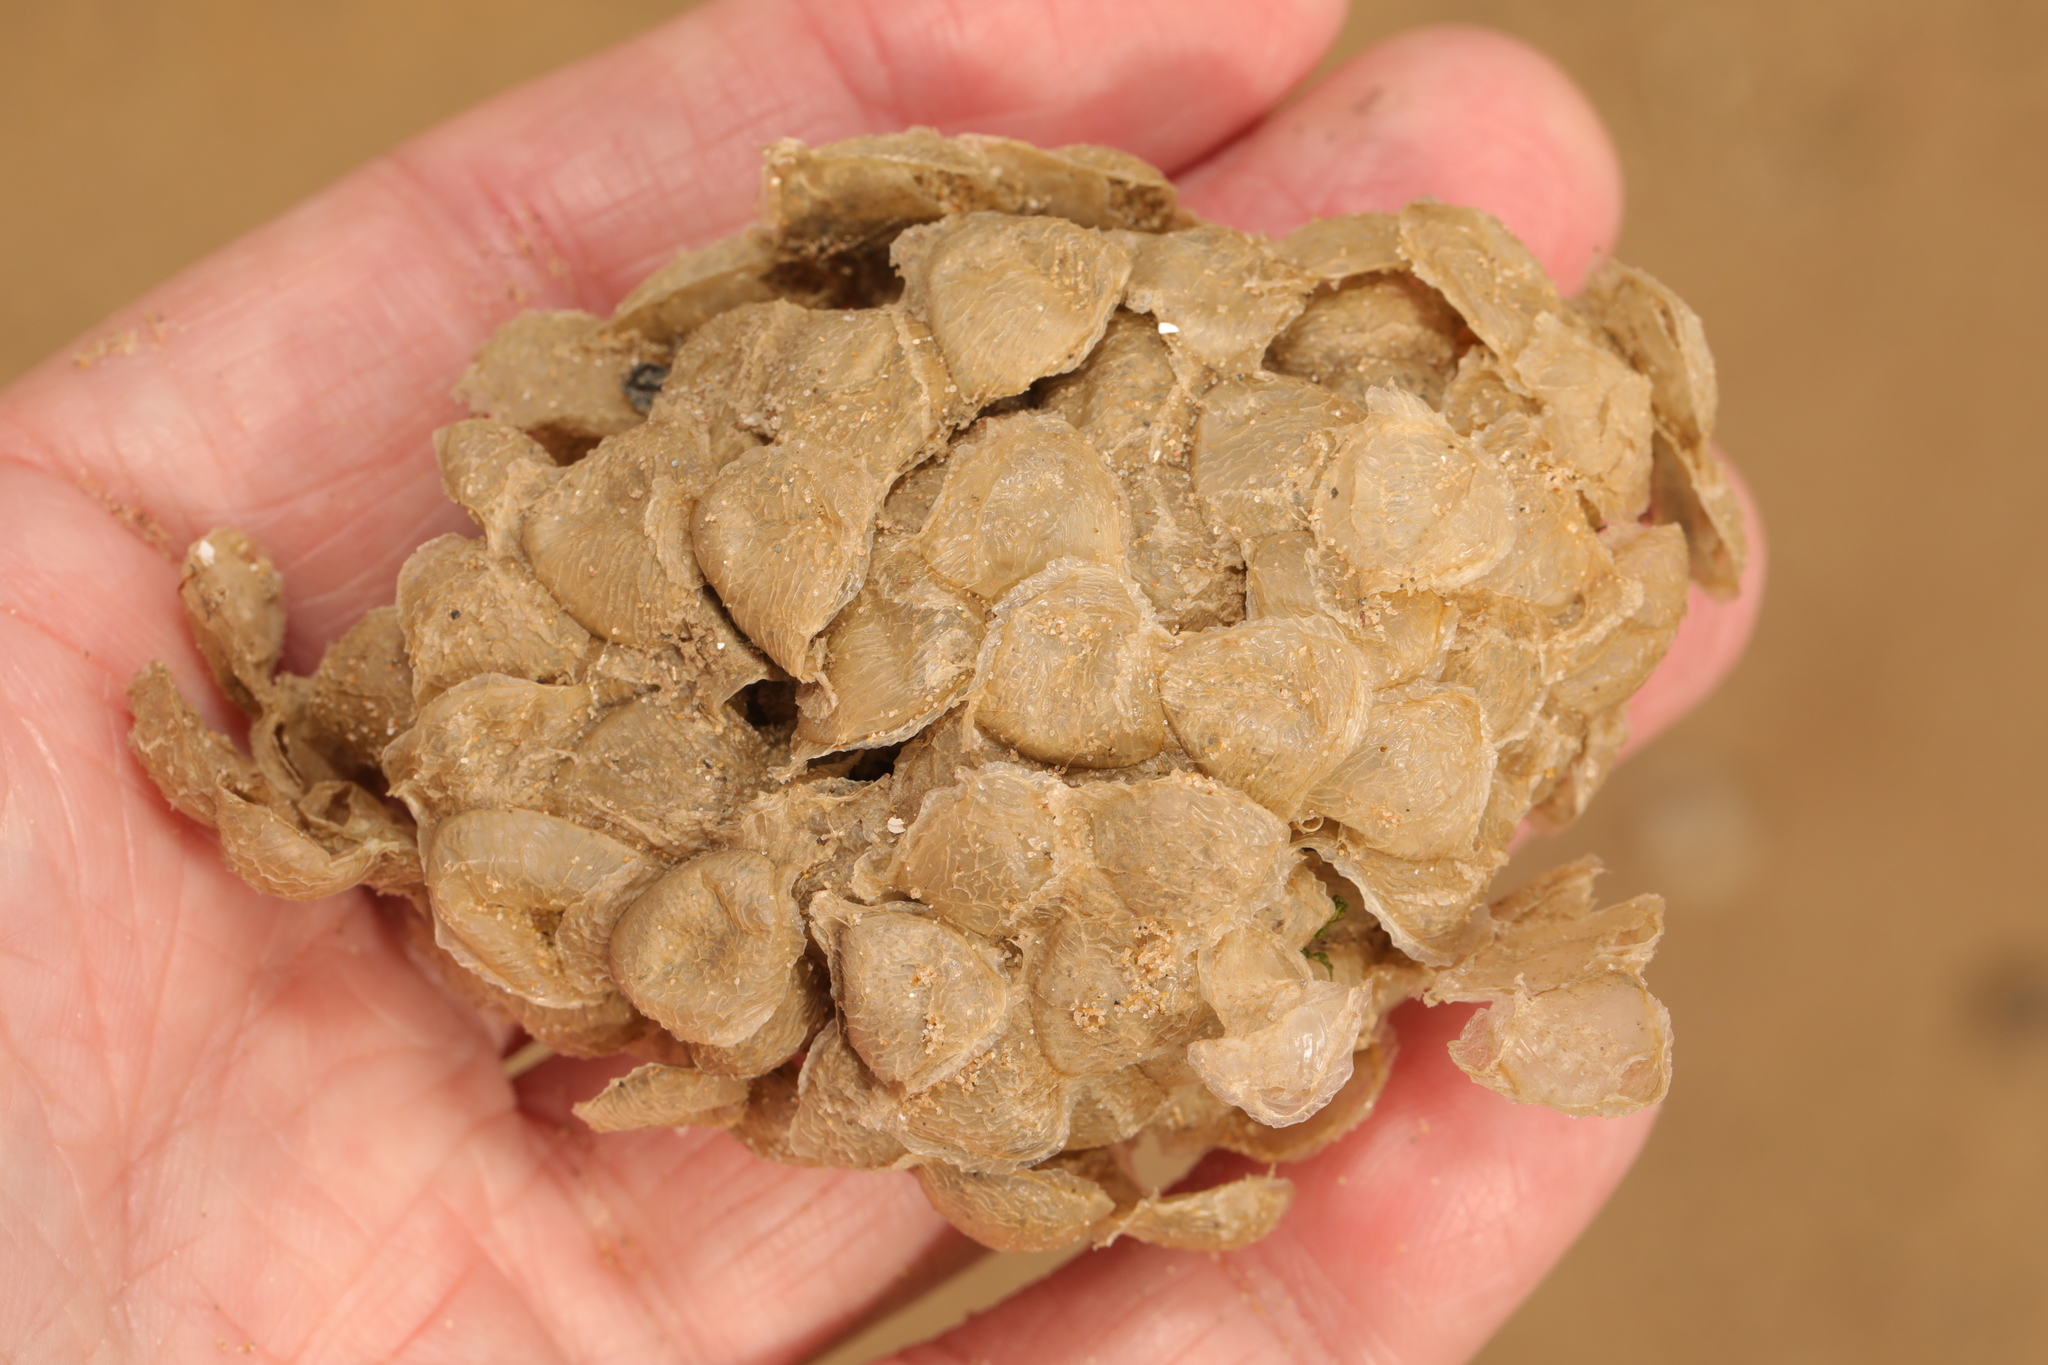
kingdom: Animalia
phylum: Mollusca
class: Gastropoda
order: Neogastropoda
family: Buccinidae
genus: Buccinum
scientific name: Buccinum undatum
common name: Common whelk
